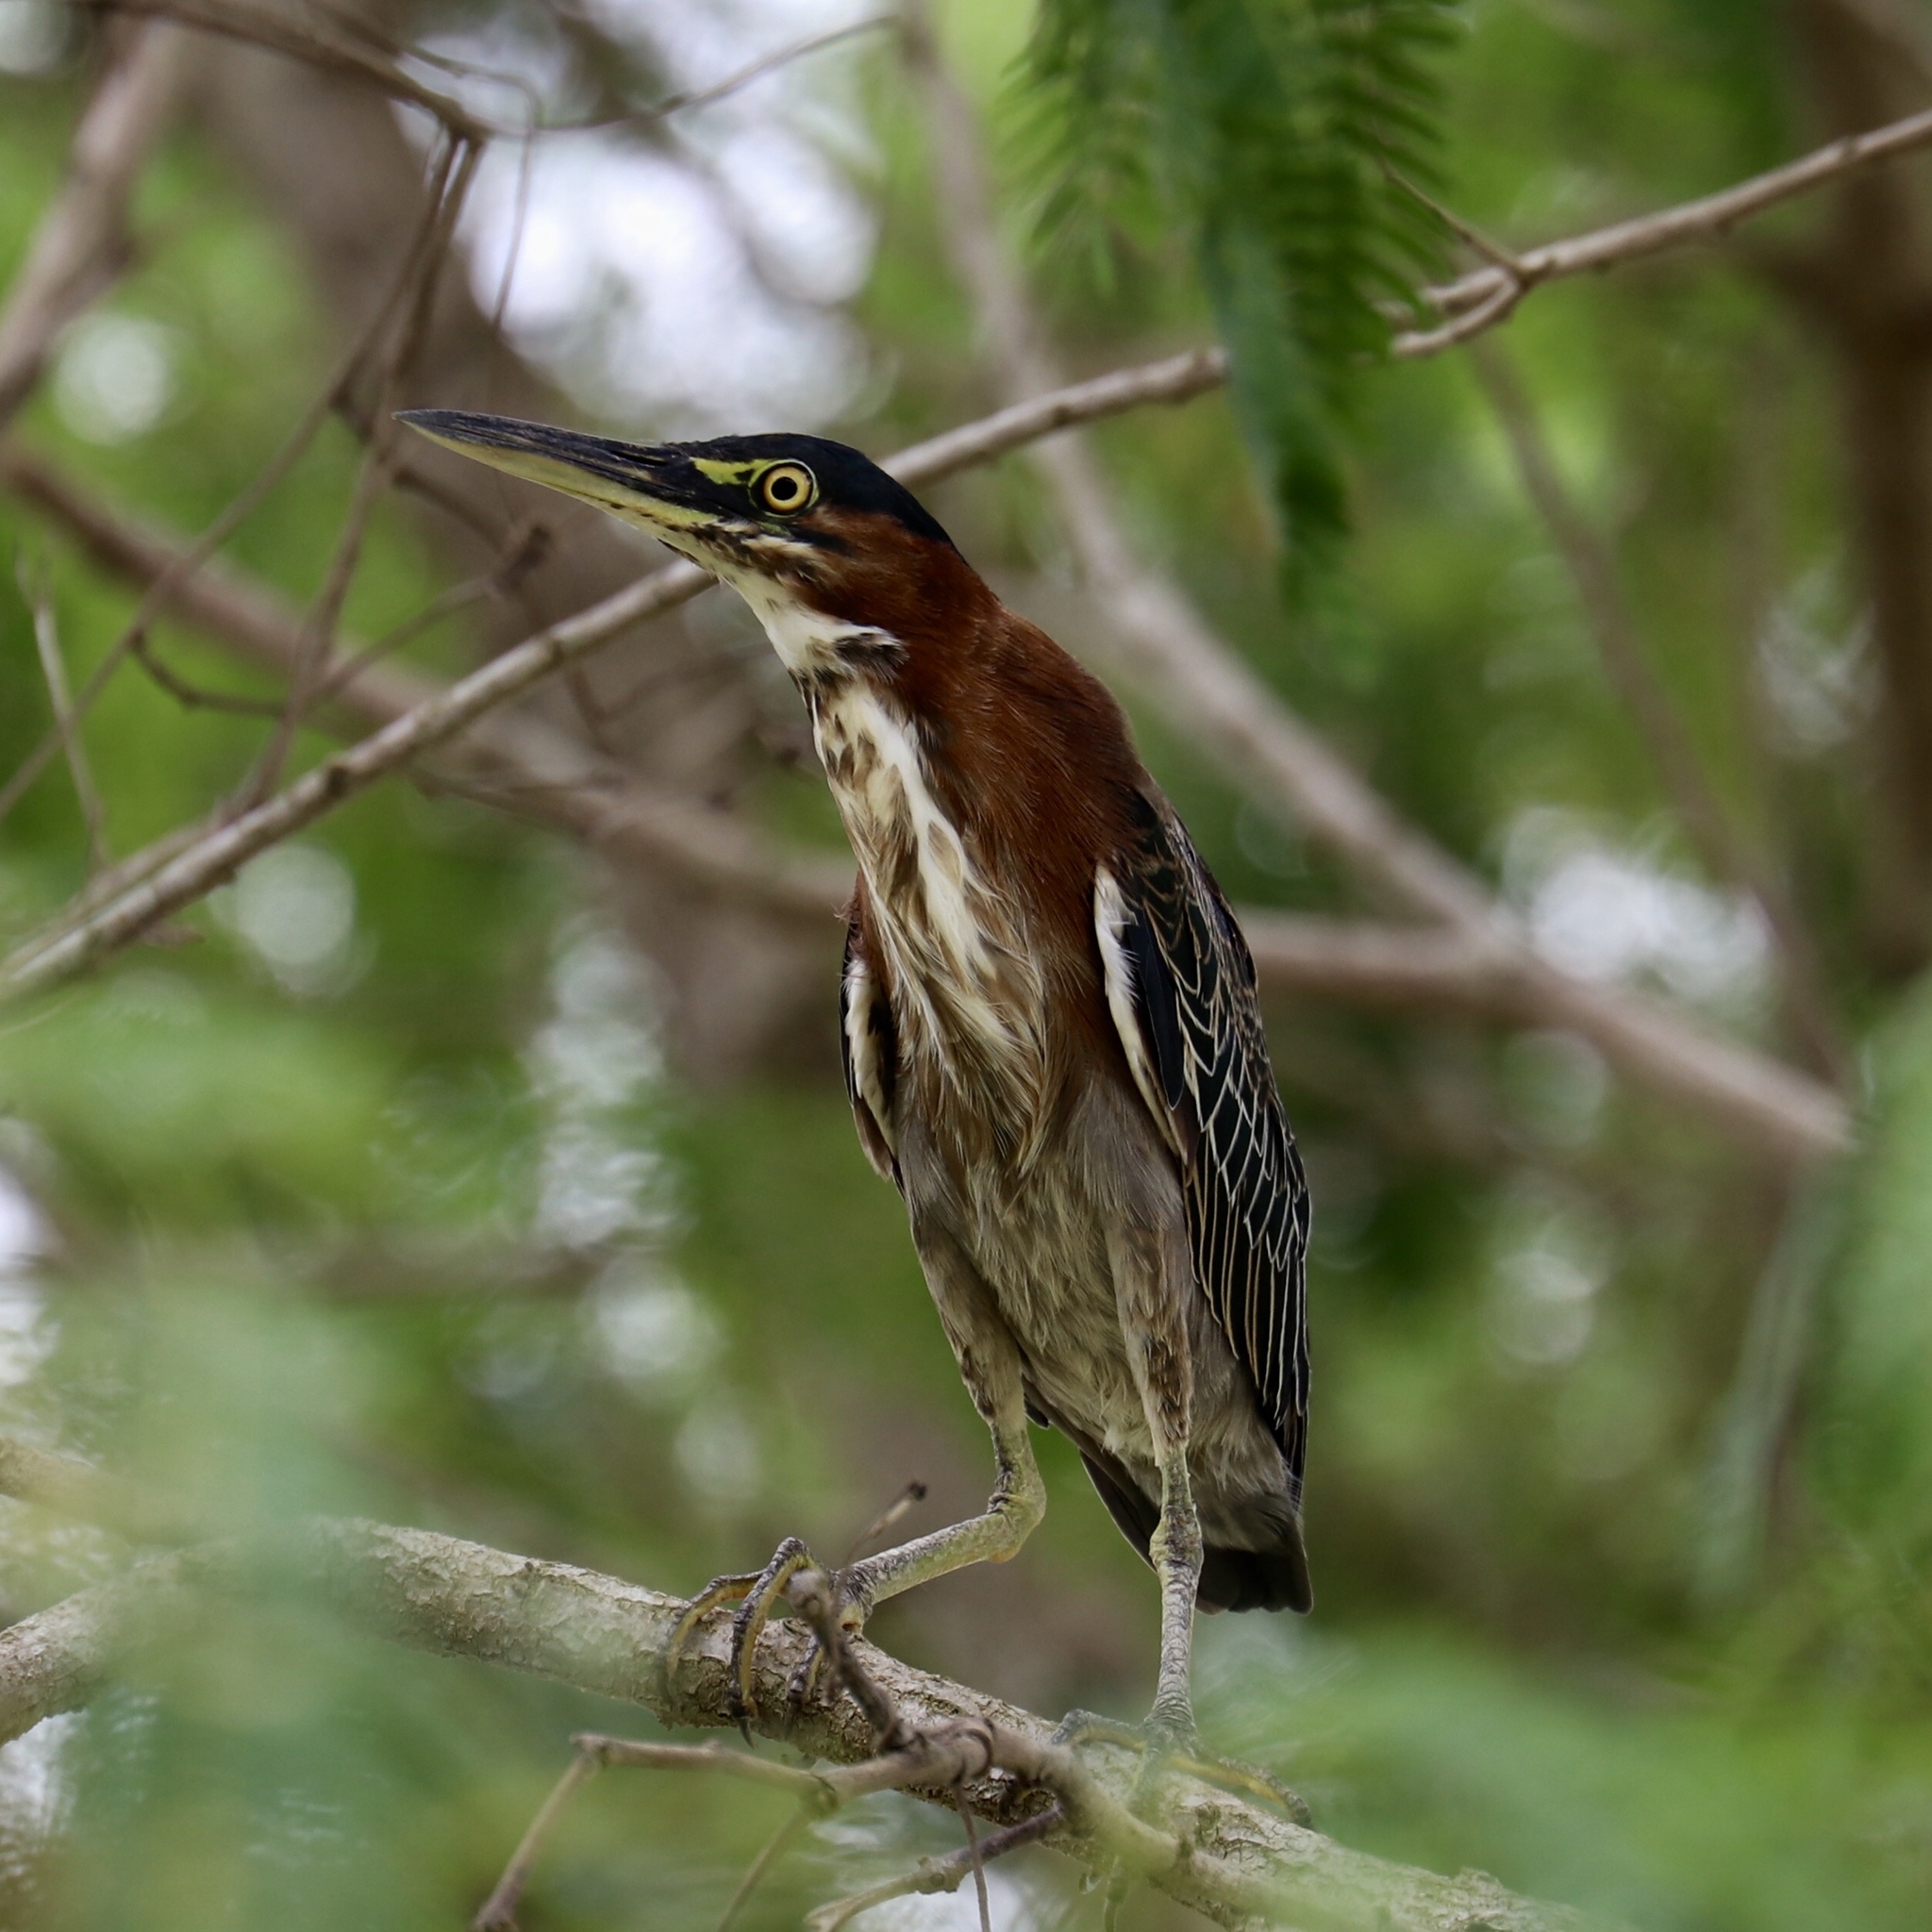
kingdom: Animalia
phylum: Chordata
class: Aves
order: Pelecaniformes
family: Ardeidae
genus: Butorides
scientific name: Butorides virescens
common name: Green heron
